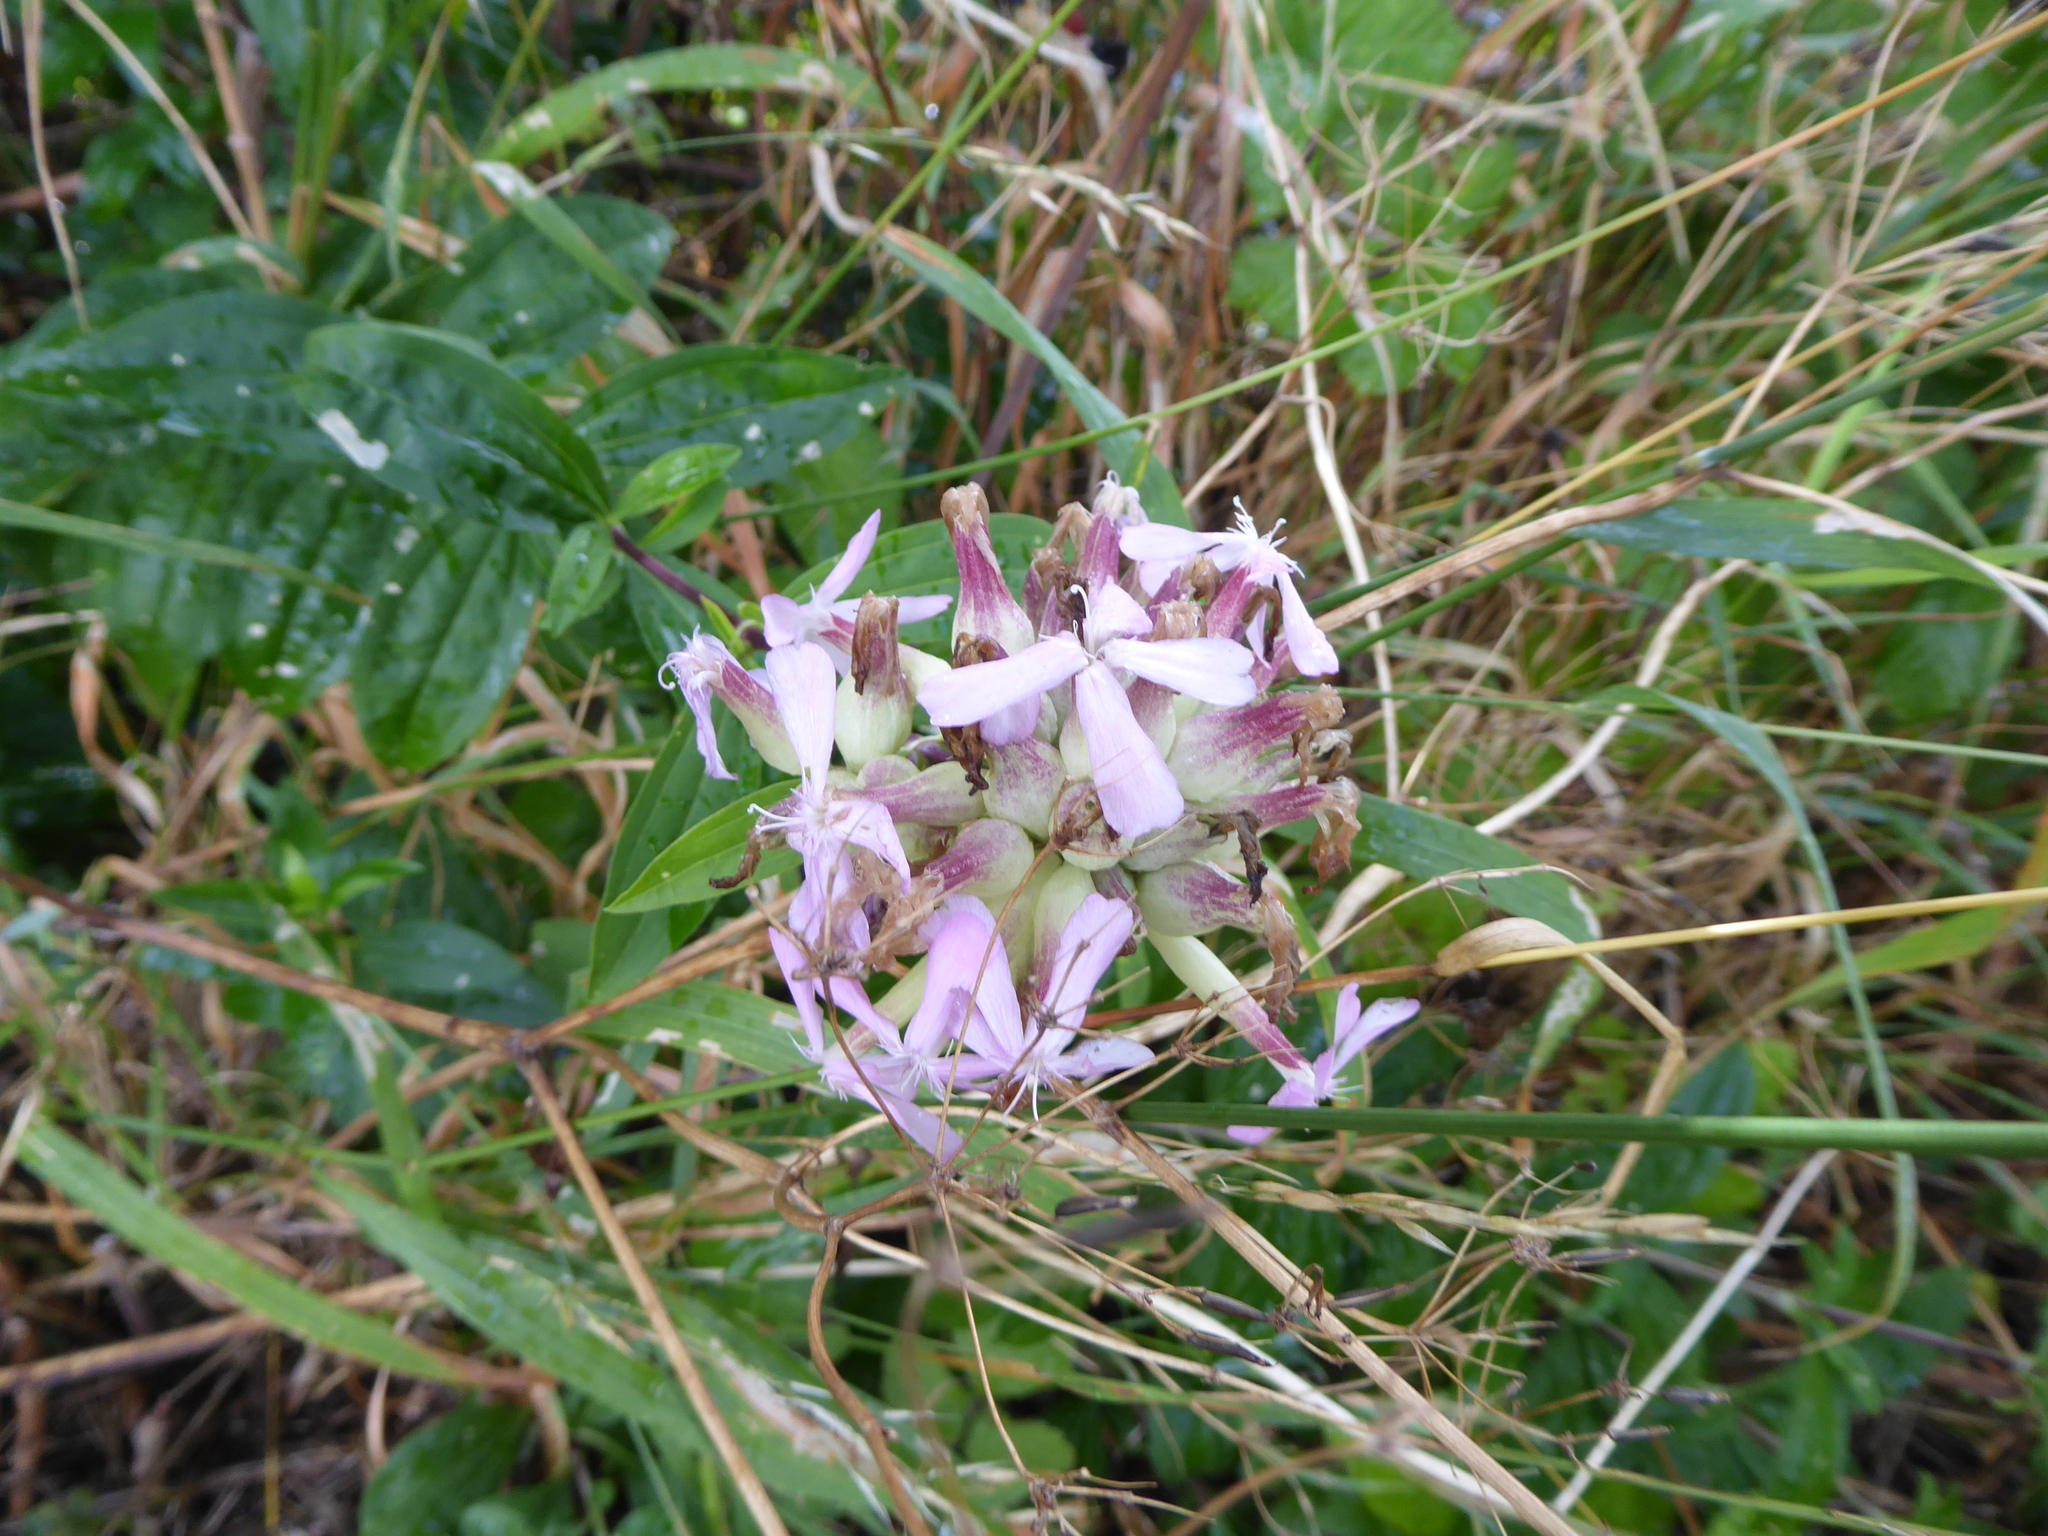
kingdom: Plantae
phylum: Tracheophyta
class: Magnoliopsida
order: Caryophyllales
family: Caryophyllaceae
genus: Saponaria
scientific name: Saponaria officinalis
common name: Soapwort
